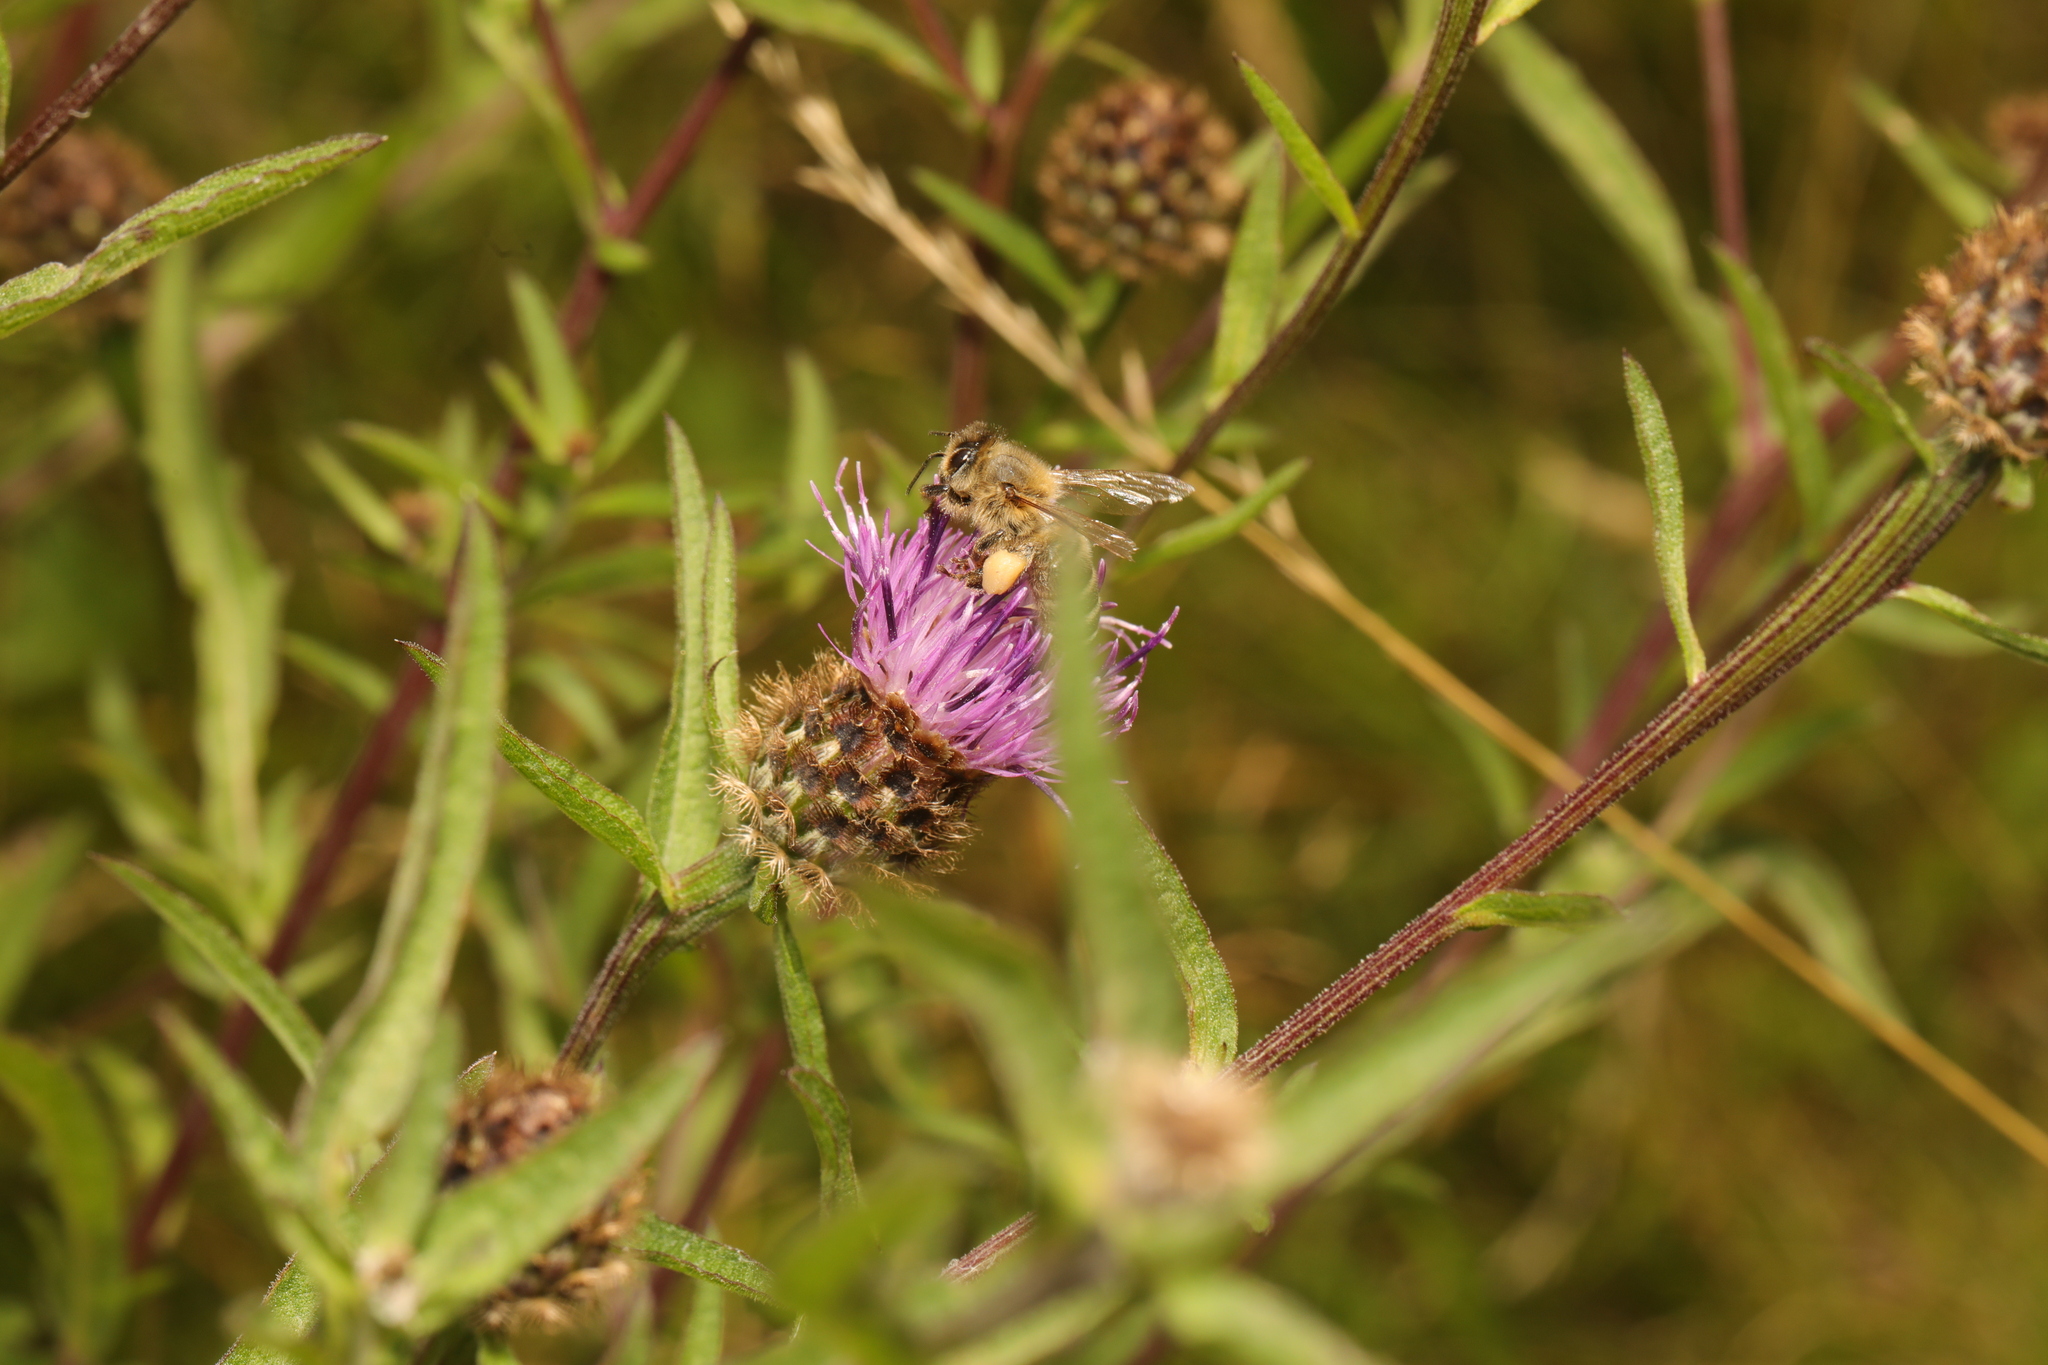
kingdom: Animalia
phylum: Arthropoda
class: Insecta
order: Hymenoptera
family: Apidae
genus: Apis
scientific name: Apis mellifera
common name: Honey bee
